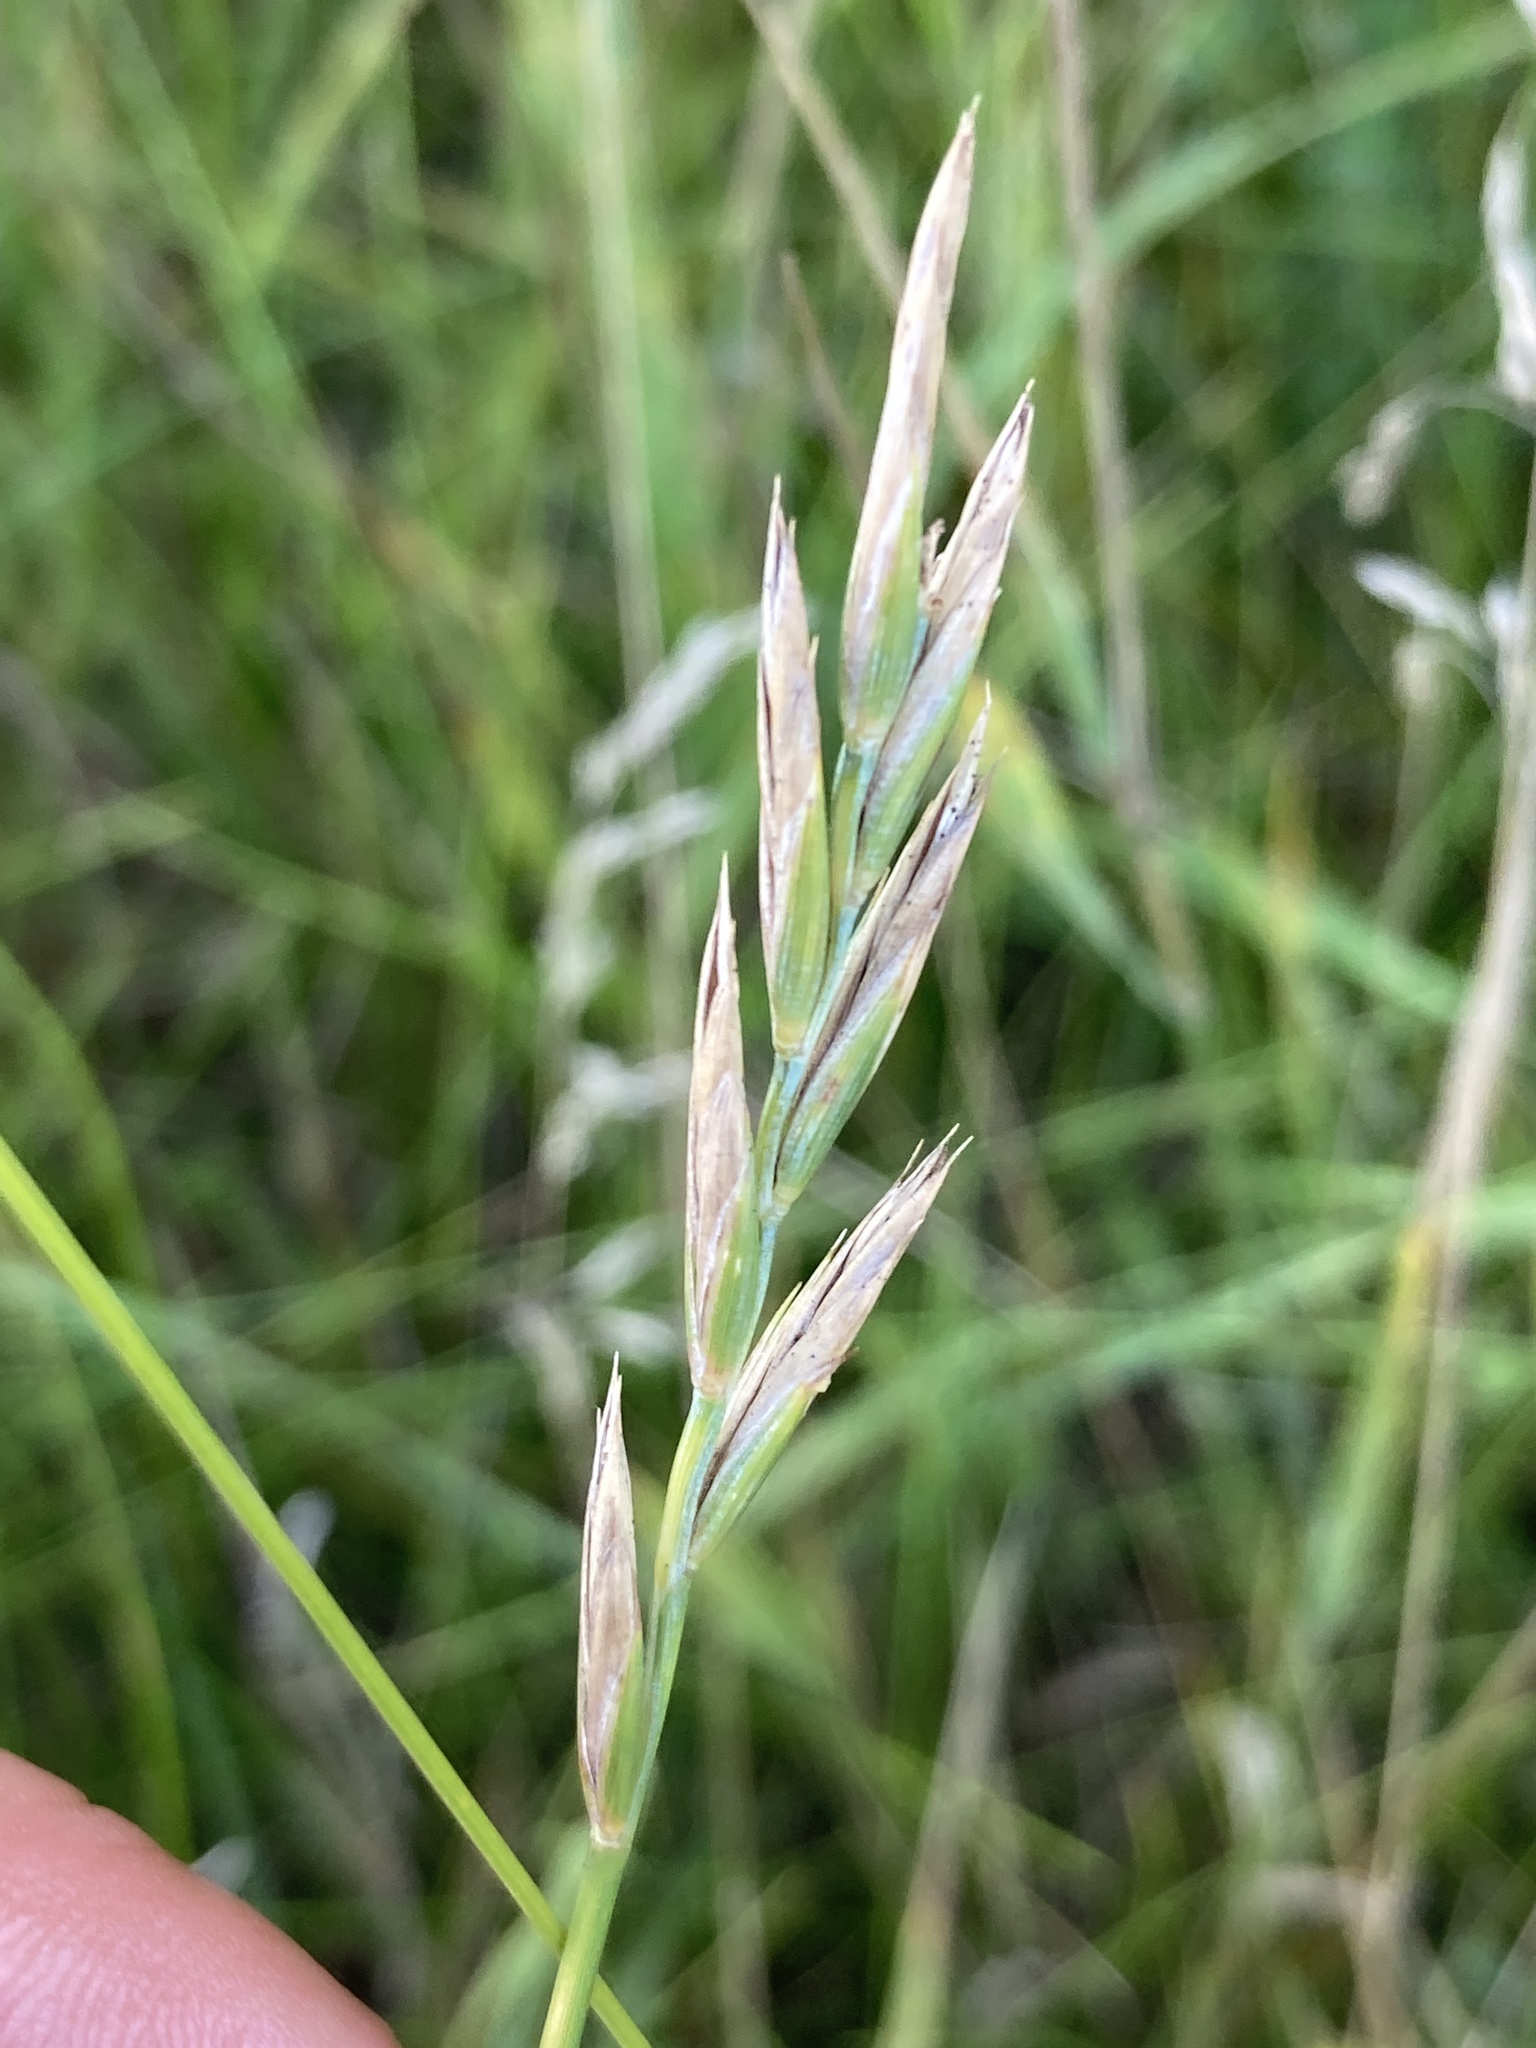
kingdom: Plantae
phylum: Tracheophyta
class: Liliopsida
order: Poales
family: Poaceae
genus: Elymus
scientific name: Elymus repens
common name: Quackgrass
